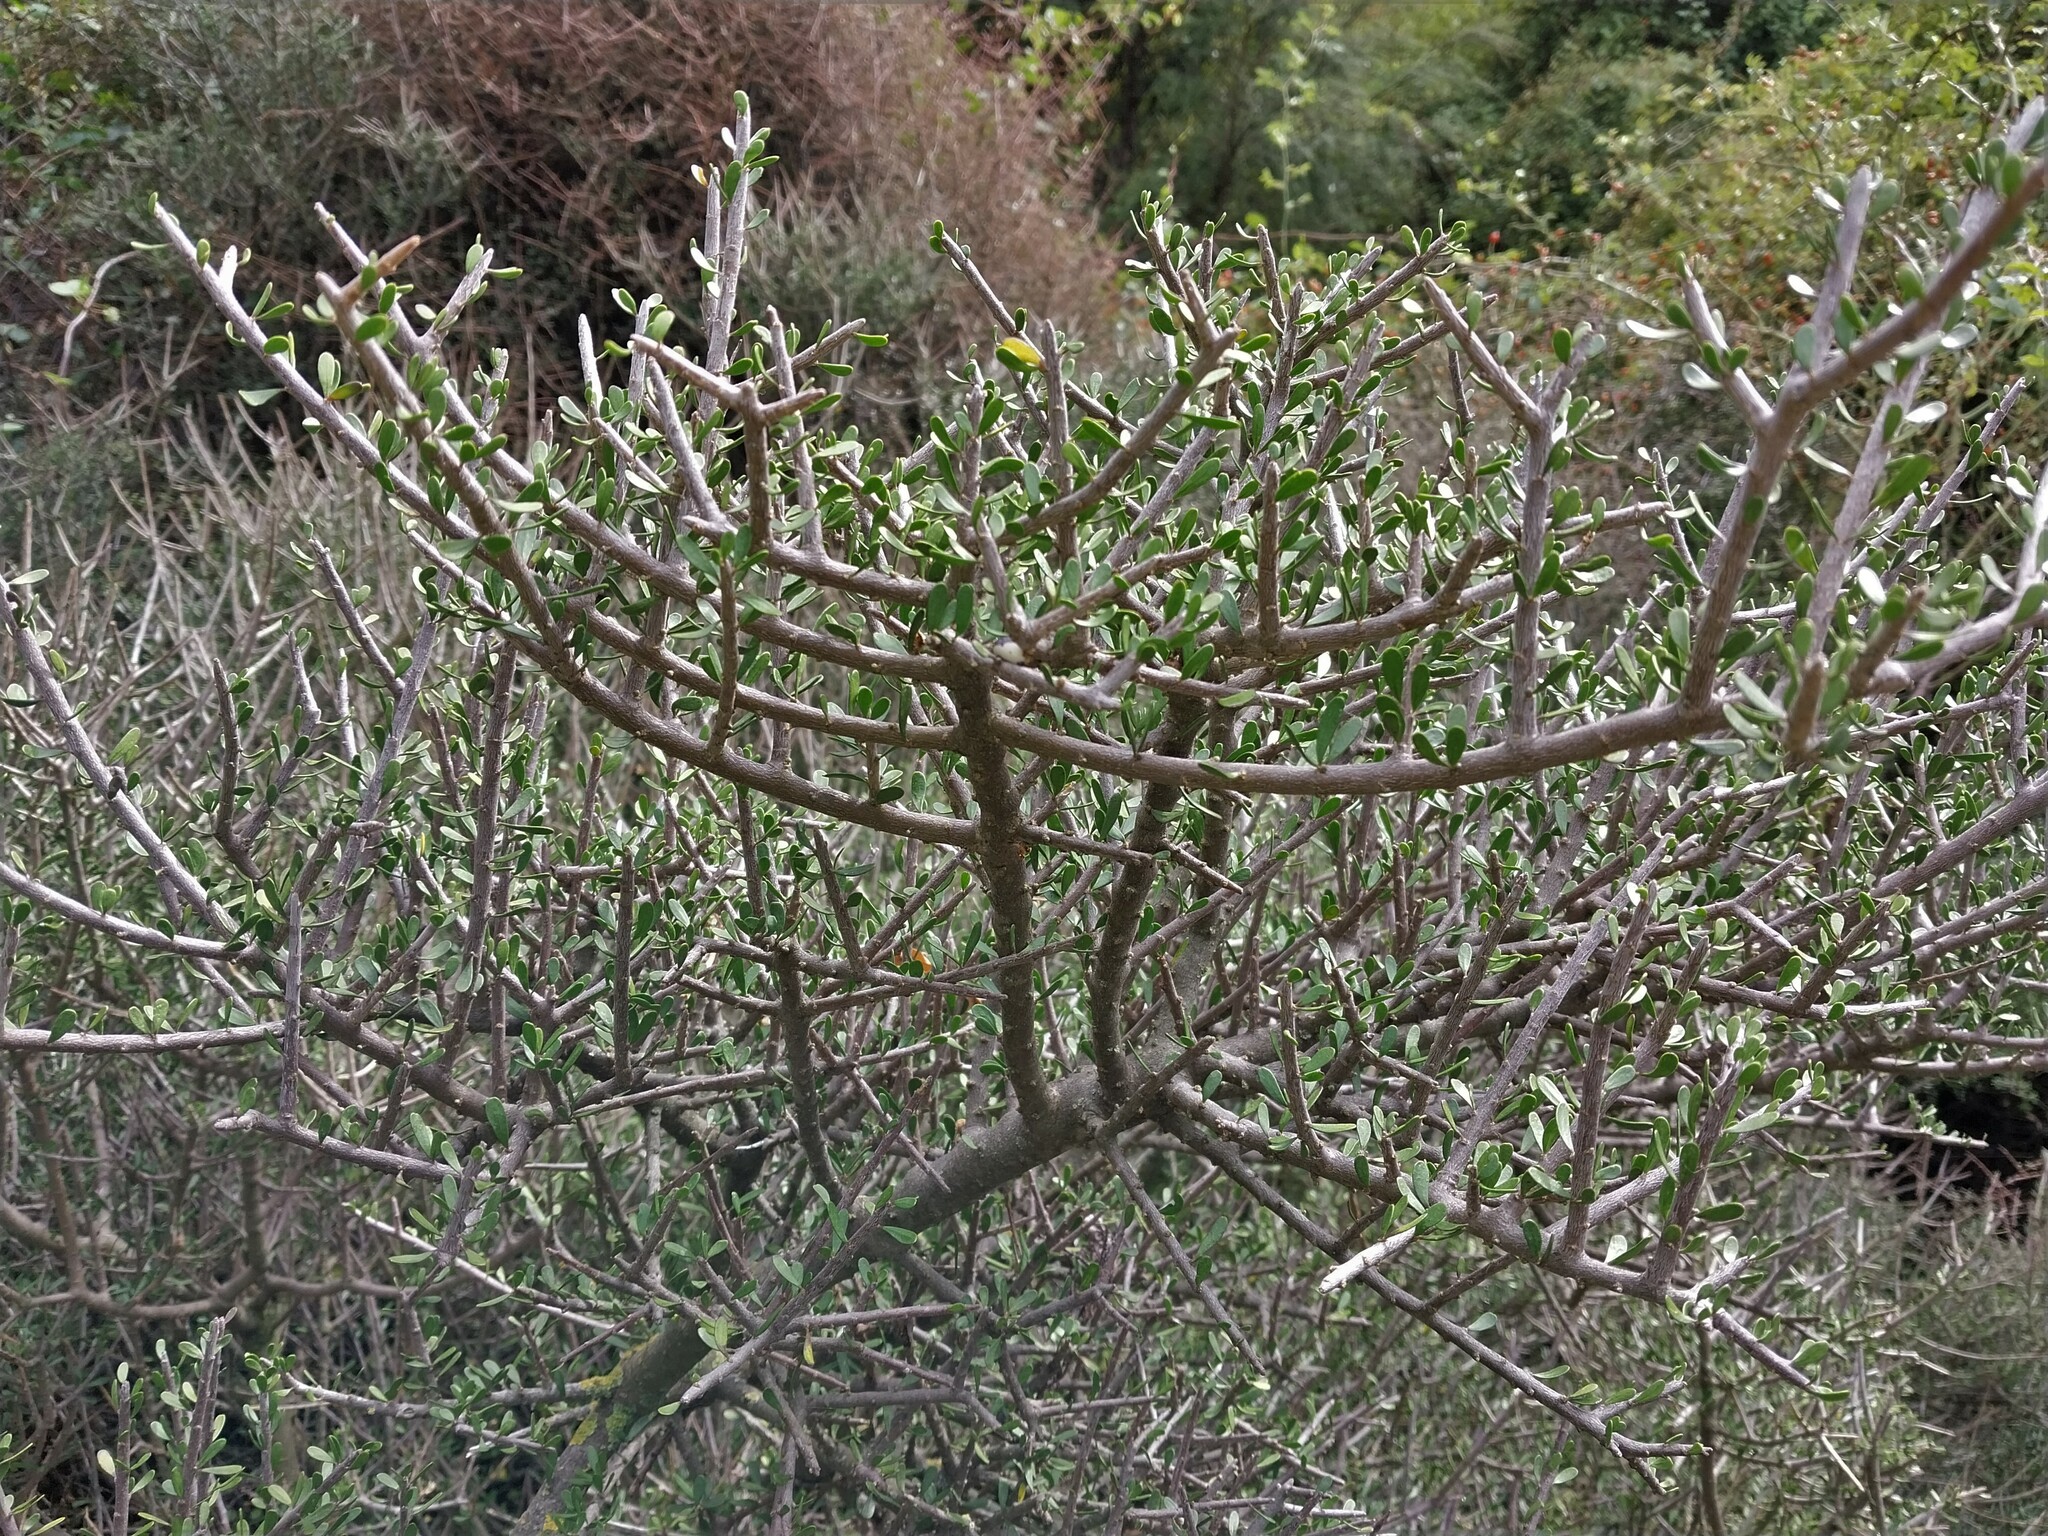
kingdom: Plantae
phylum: Tracheophyta
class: Magnoliopsida
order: Malpighiales
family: Violaceae
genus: Melicytus
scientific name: Melicytus alpinus
